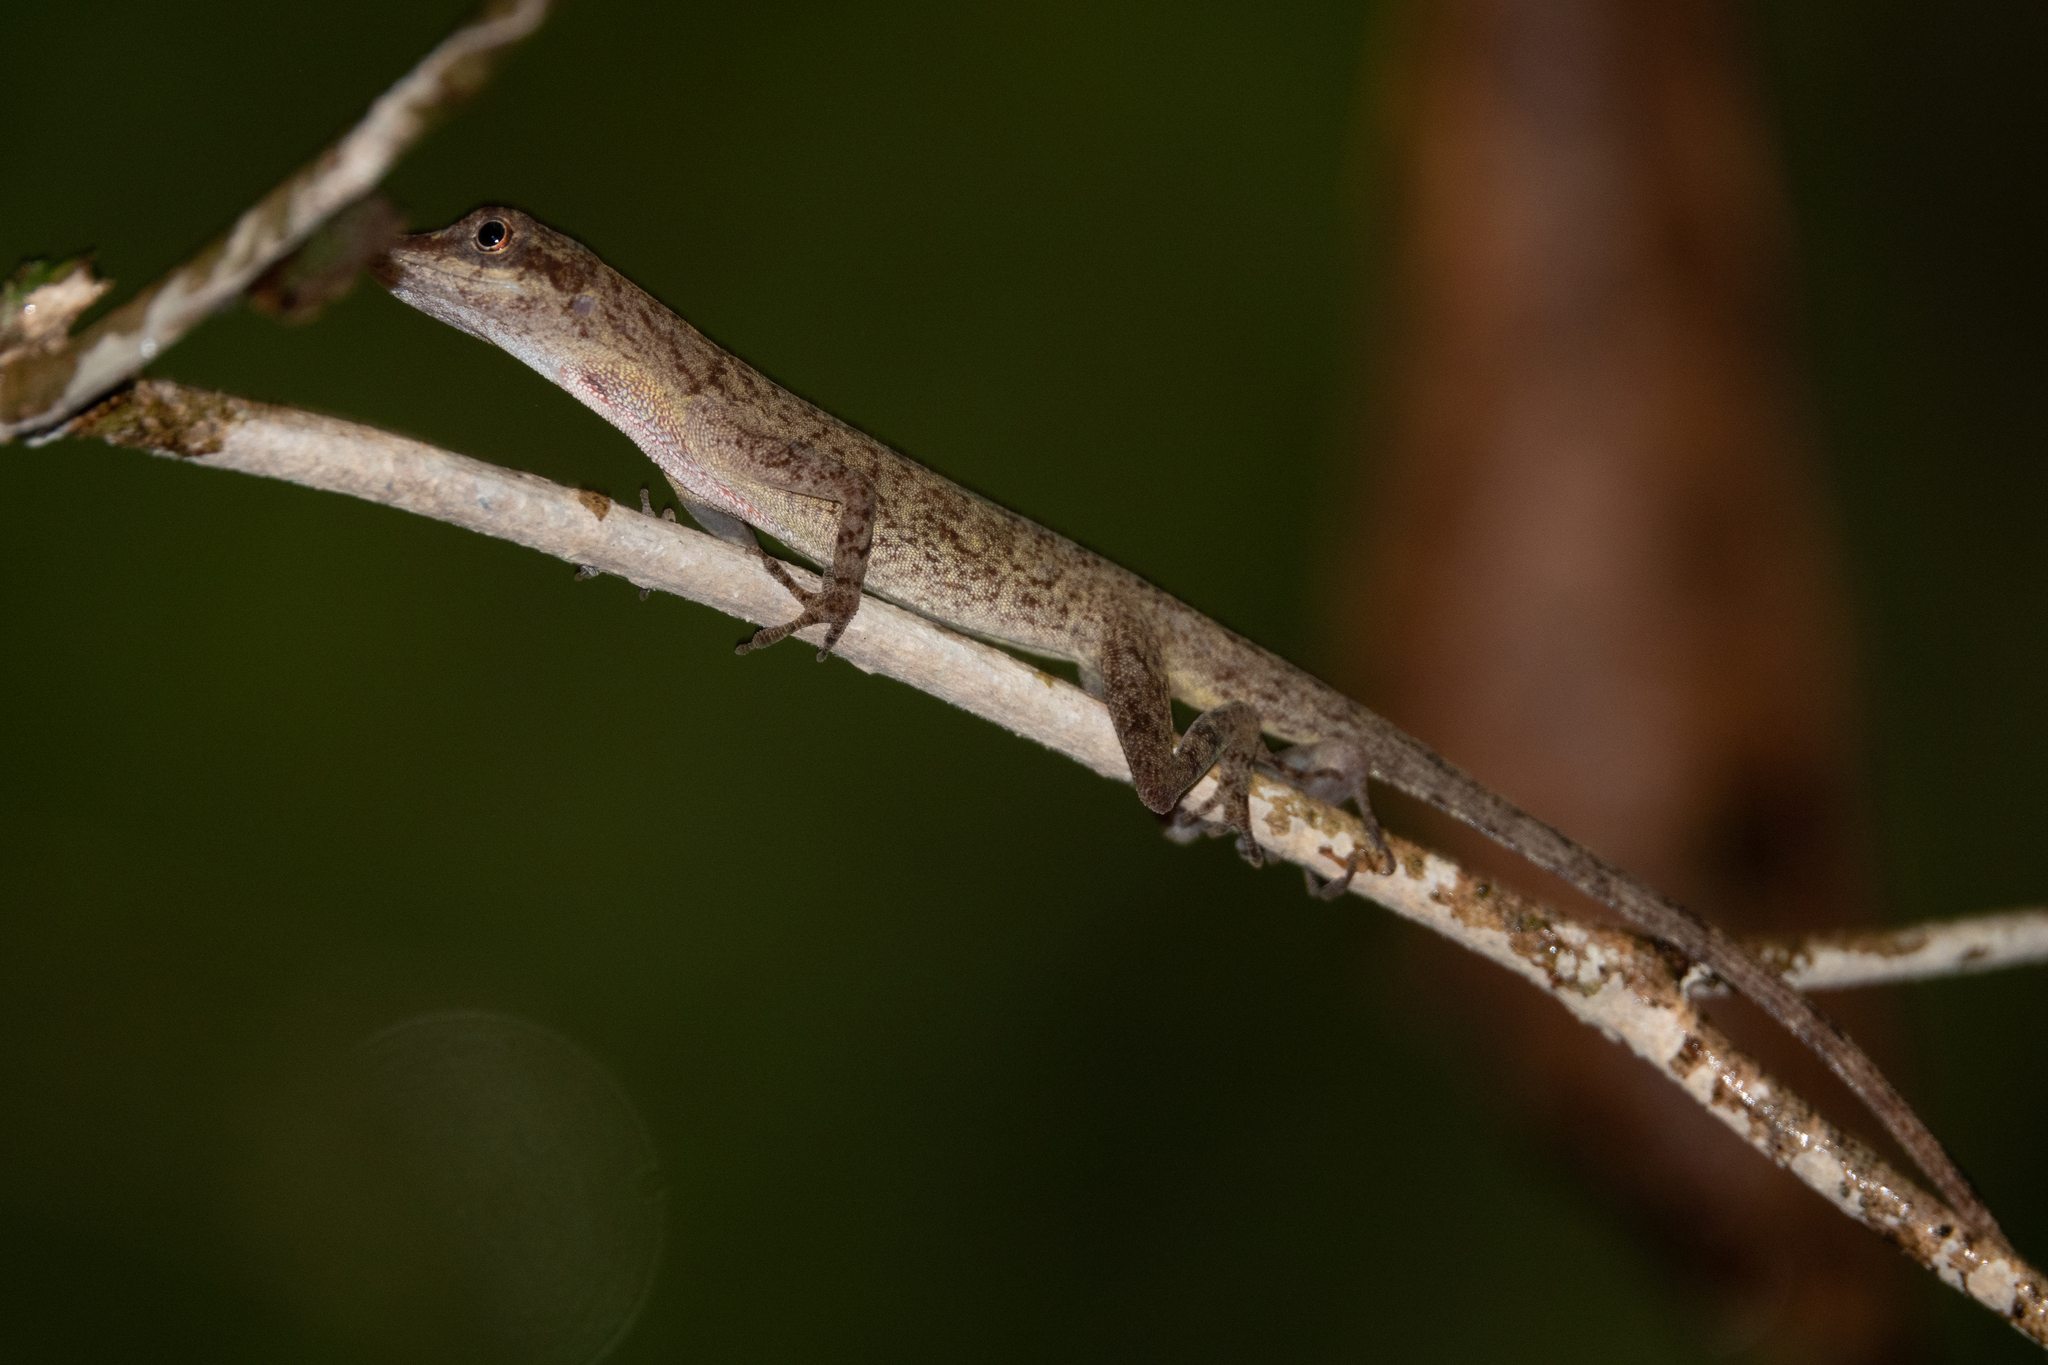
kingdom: Animalia
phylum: Chordata
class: Squamata
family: Dactyloidae
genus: Anolis
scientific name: Anolis fuscoauratus
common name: Brown-eared anole
